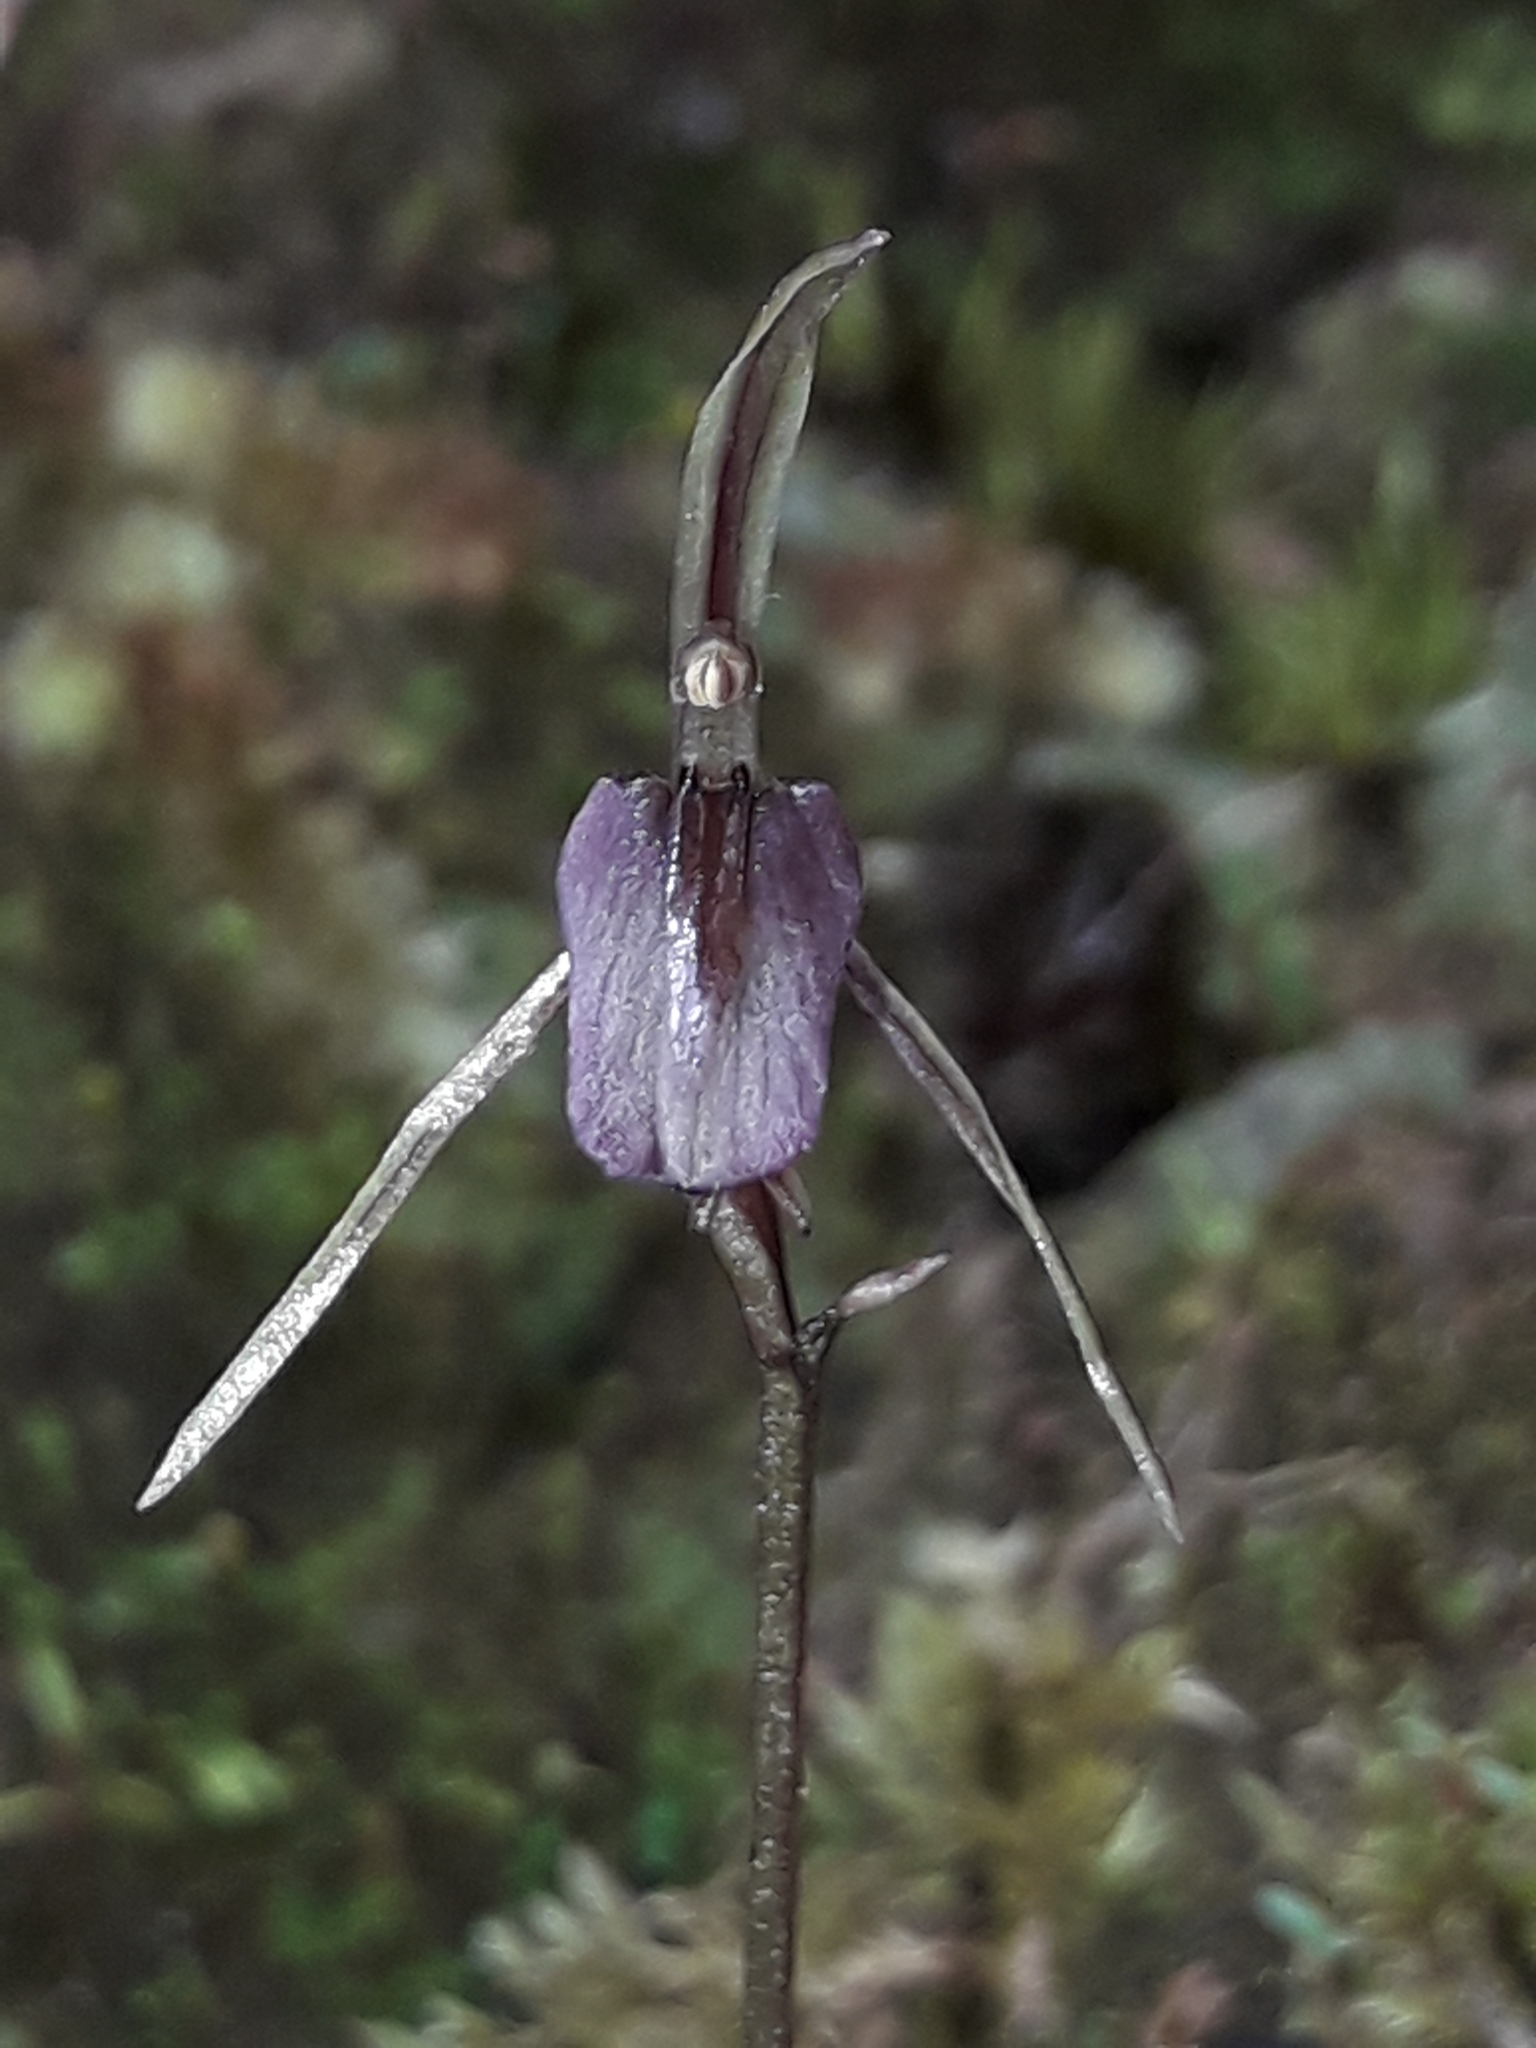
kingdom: Plantae
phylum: Tracheophyta
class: Liliopsida
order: Asparagales
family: Orchidaceae
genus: Cyrtostylis
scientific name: Cyrtostylis rotundifolia
